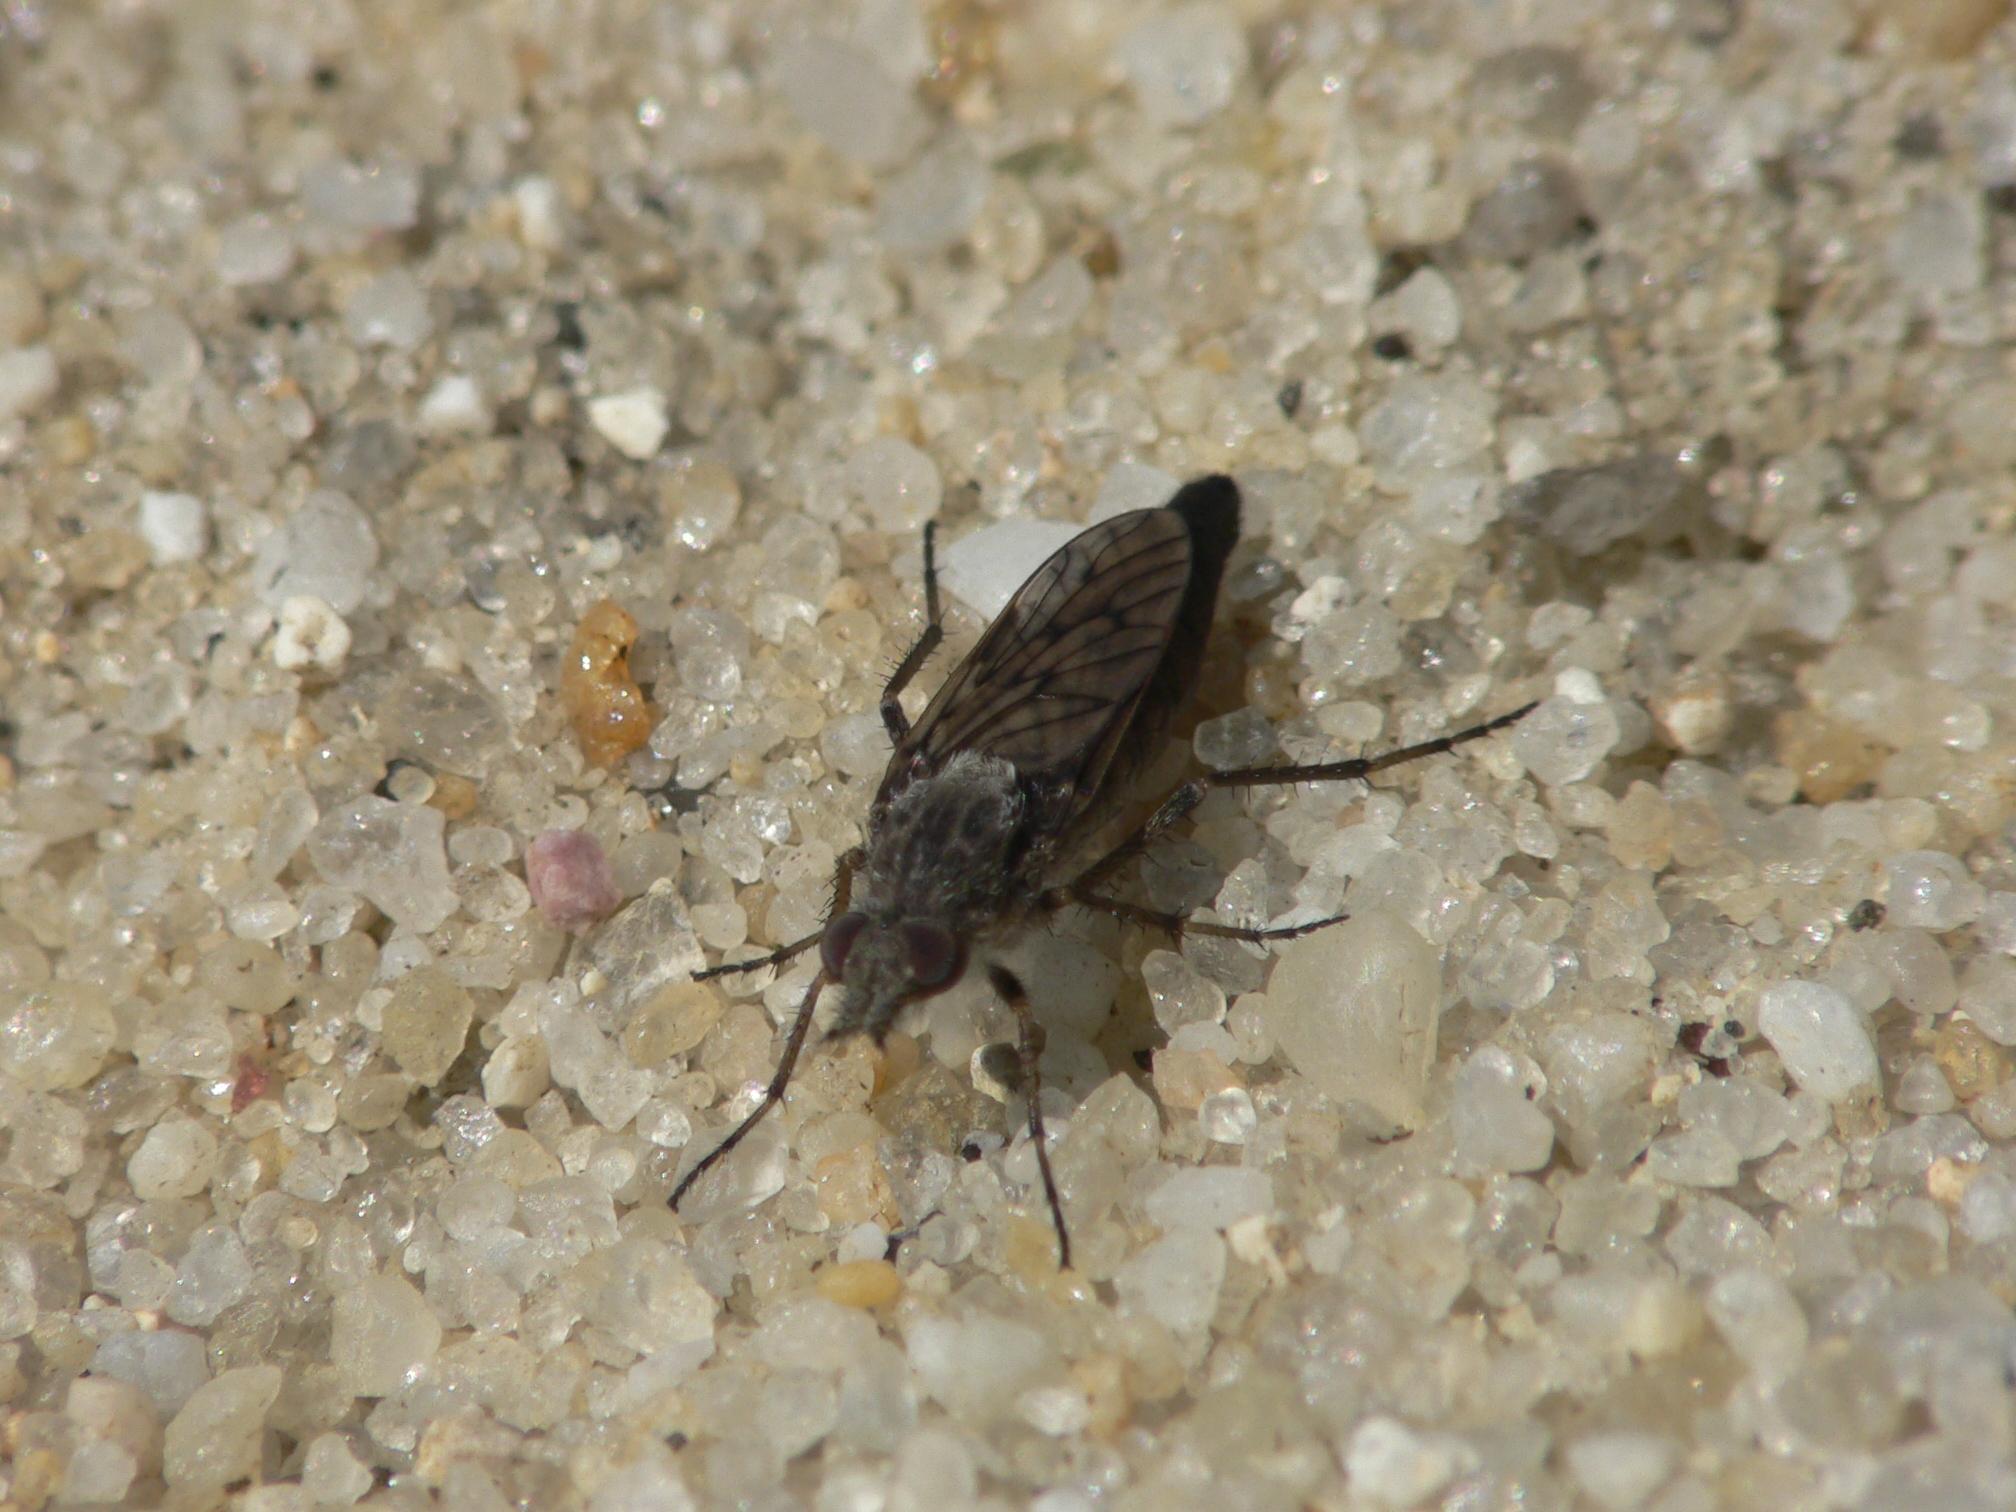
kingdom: Animalia
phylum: Arthropoda
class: Insecta
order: Diptera
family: Therevidae
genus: Tabuda
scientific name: Tabuda varia
